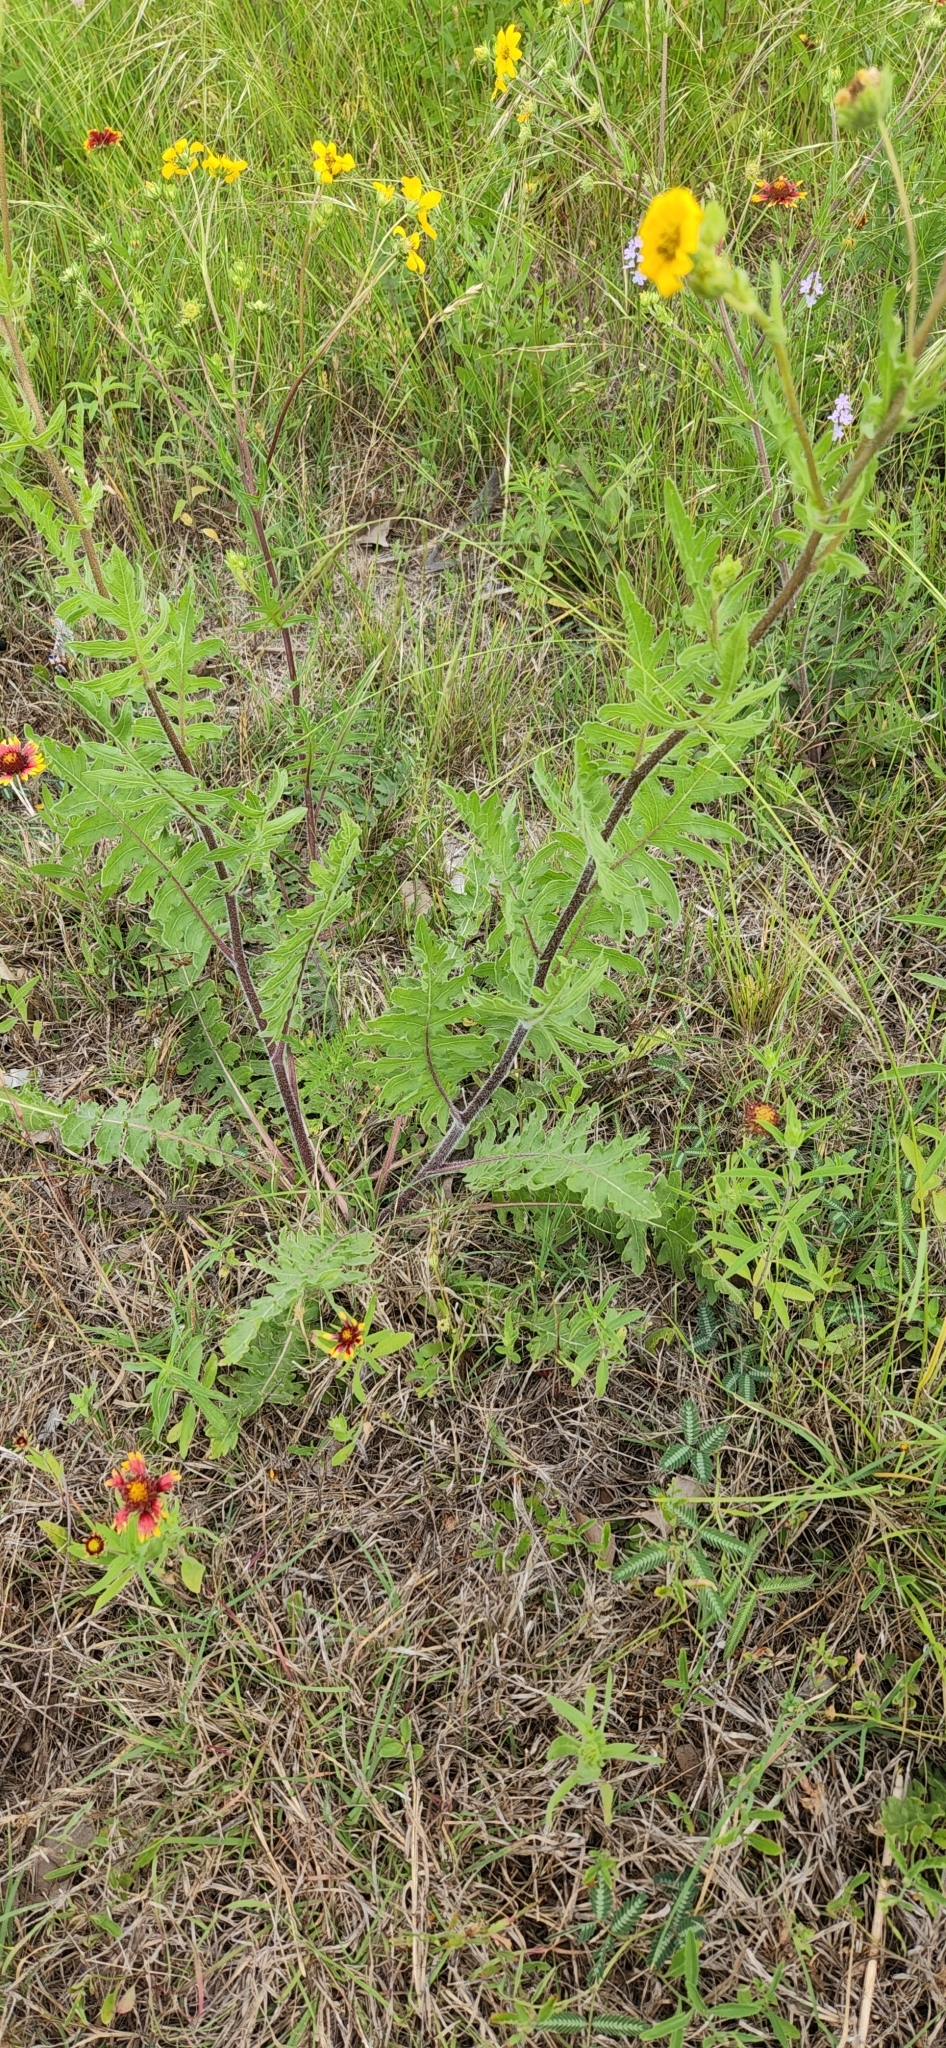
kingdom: Plantae
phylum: Tracheophyta
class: Magnoliopsida
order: Asterales
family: Asteraceae
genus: Engelmannia
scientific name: Engelmannia peristenia
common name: Engelmann's daisy
